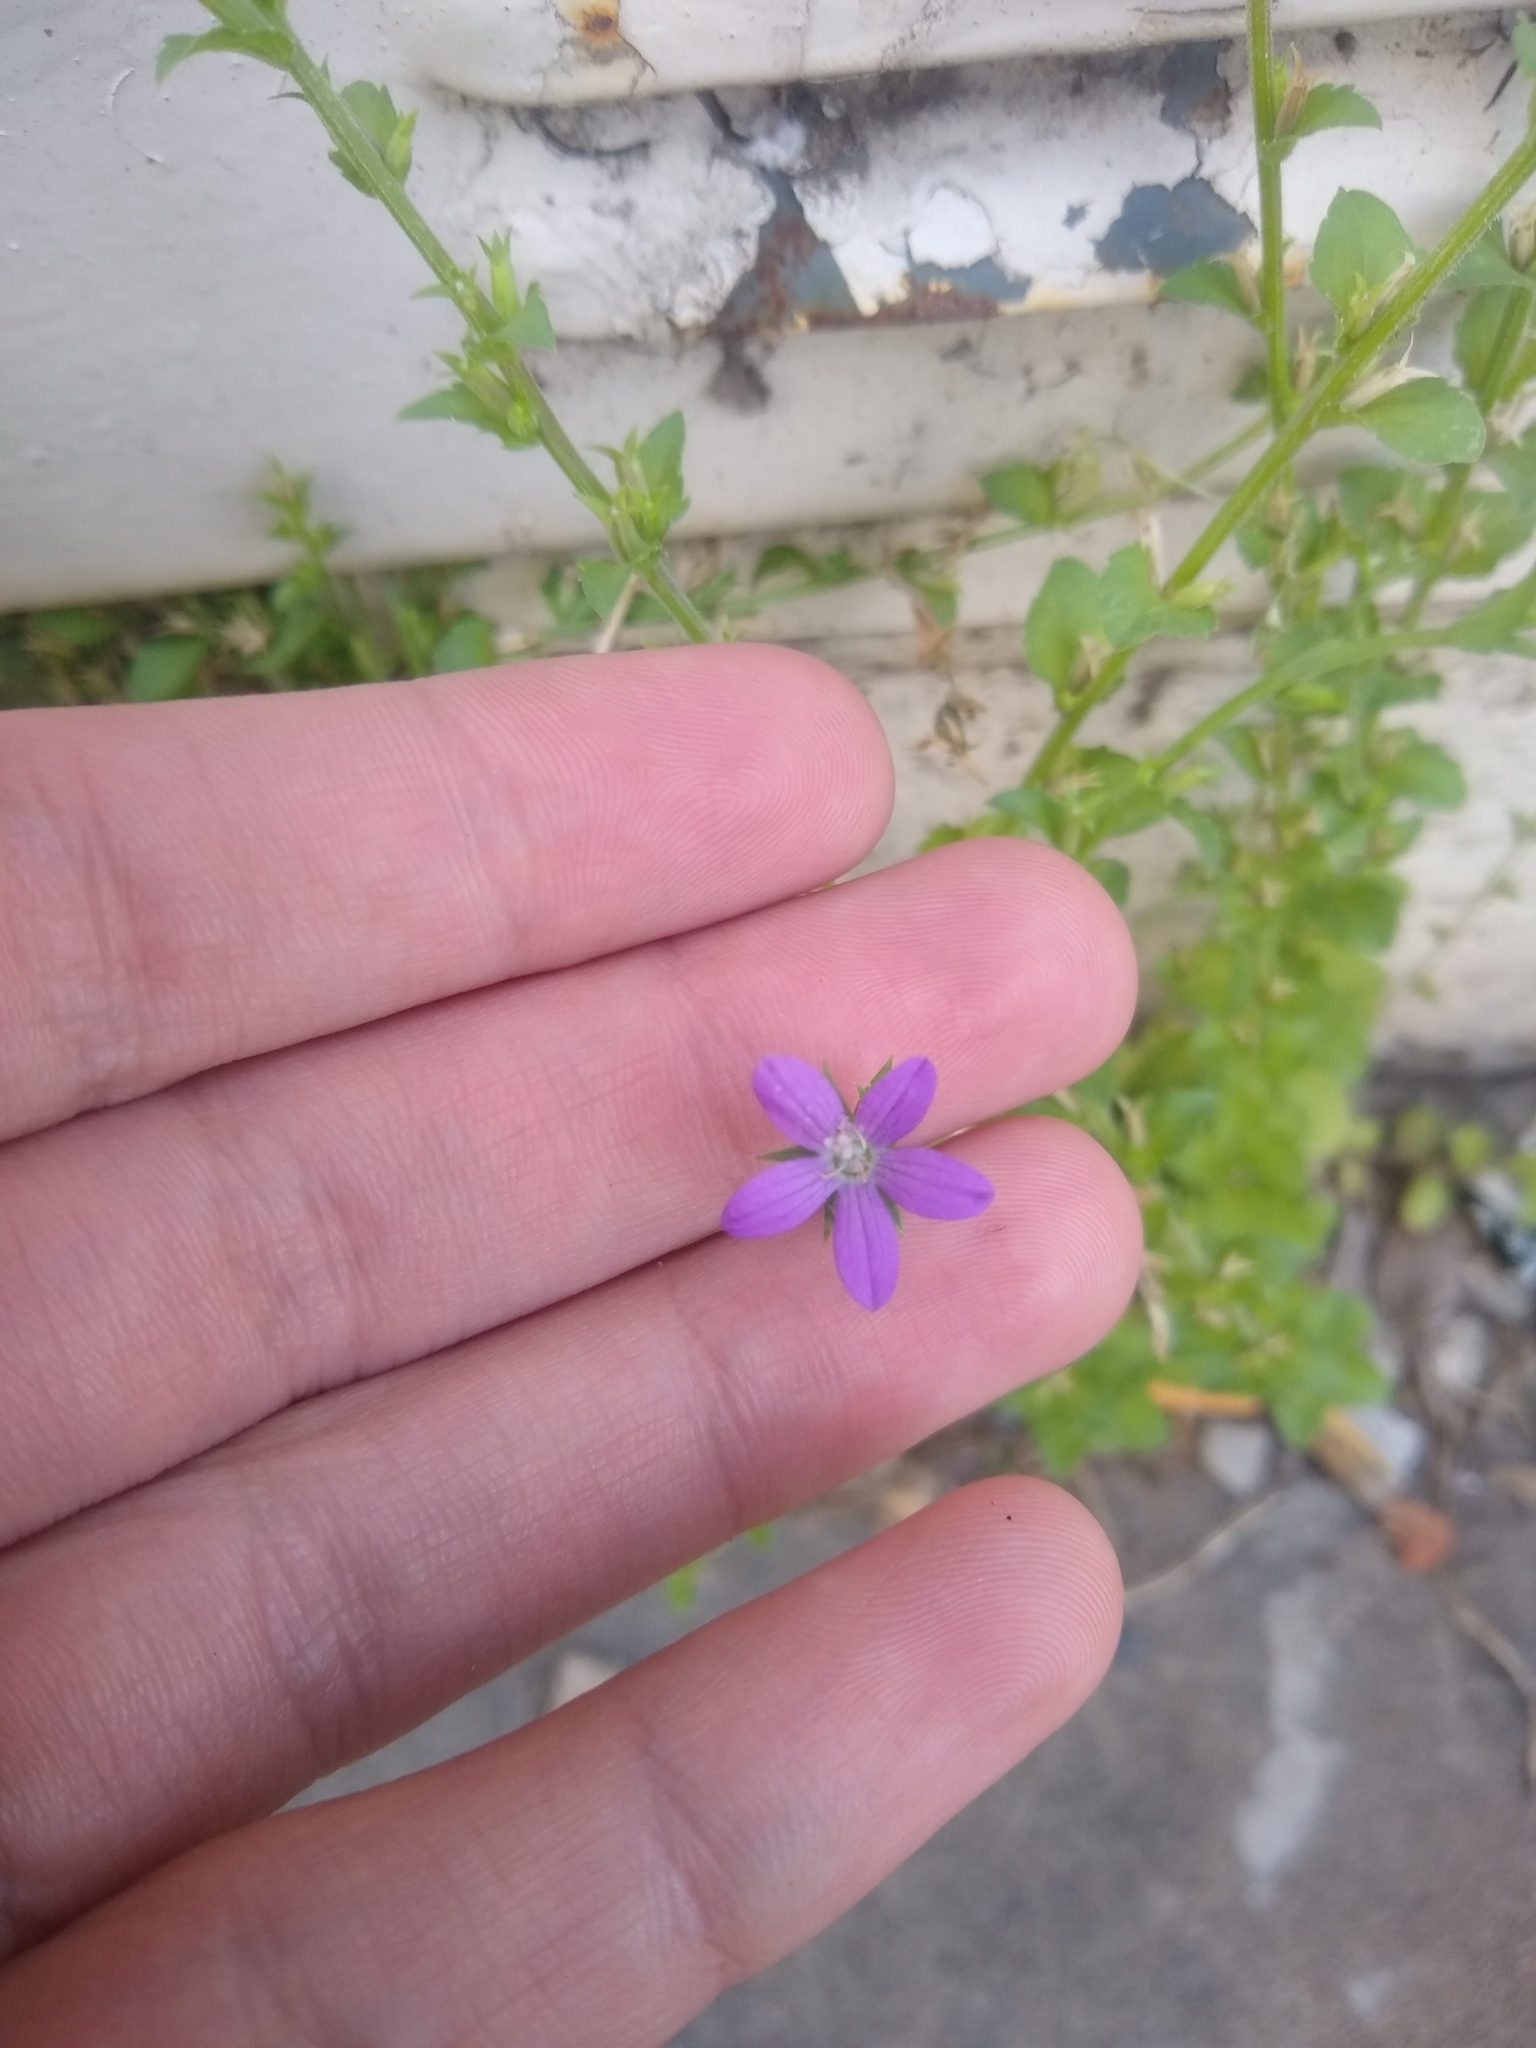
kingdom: Plantae
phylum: Tracheophyta
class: Magnoliopsida
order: Asterales
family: Campanulaceae
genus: Triodanis
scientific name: Triodanis biflora
